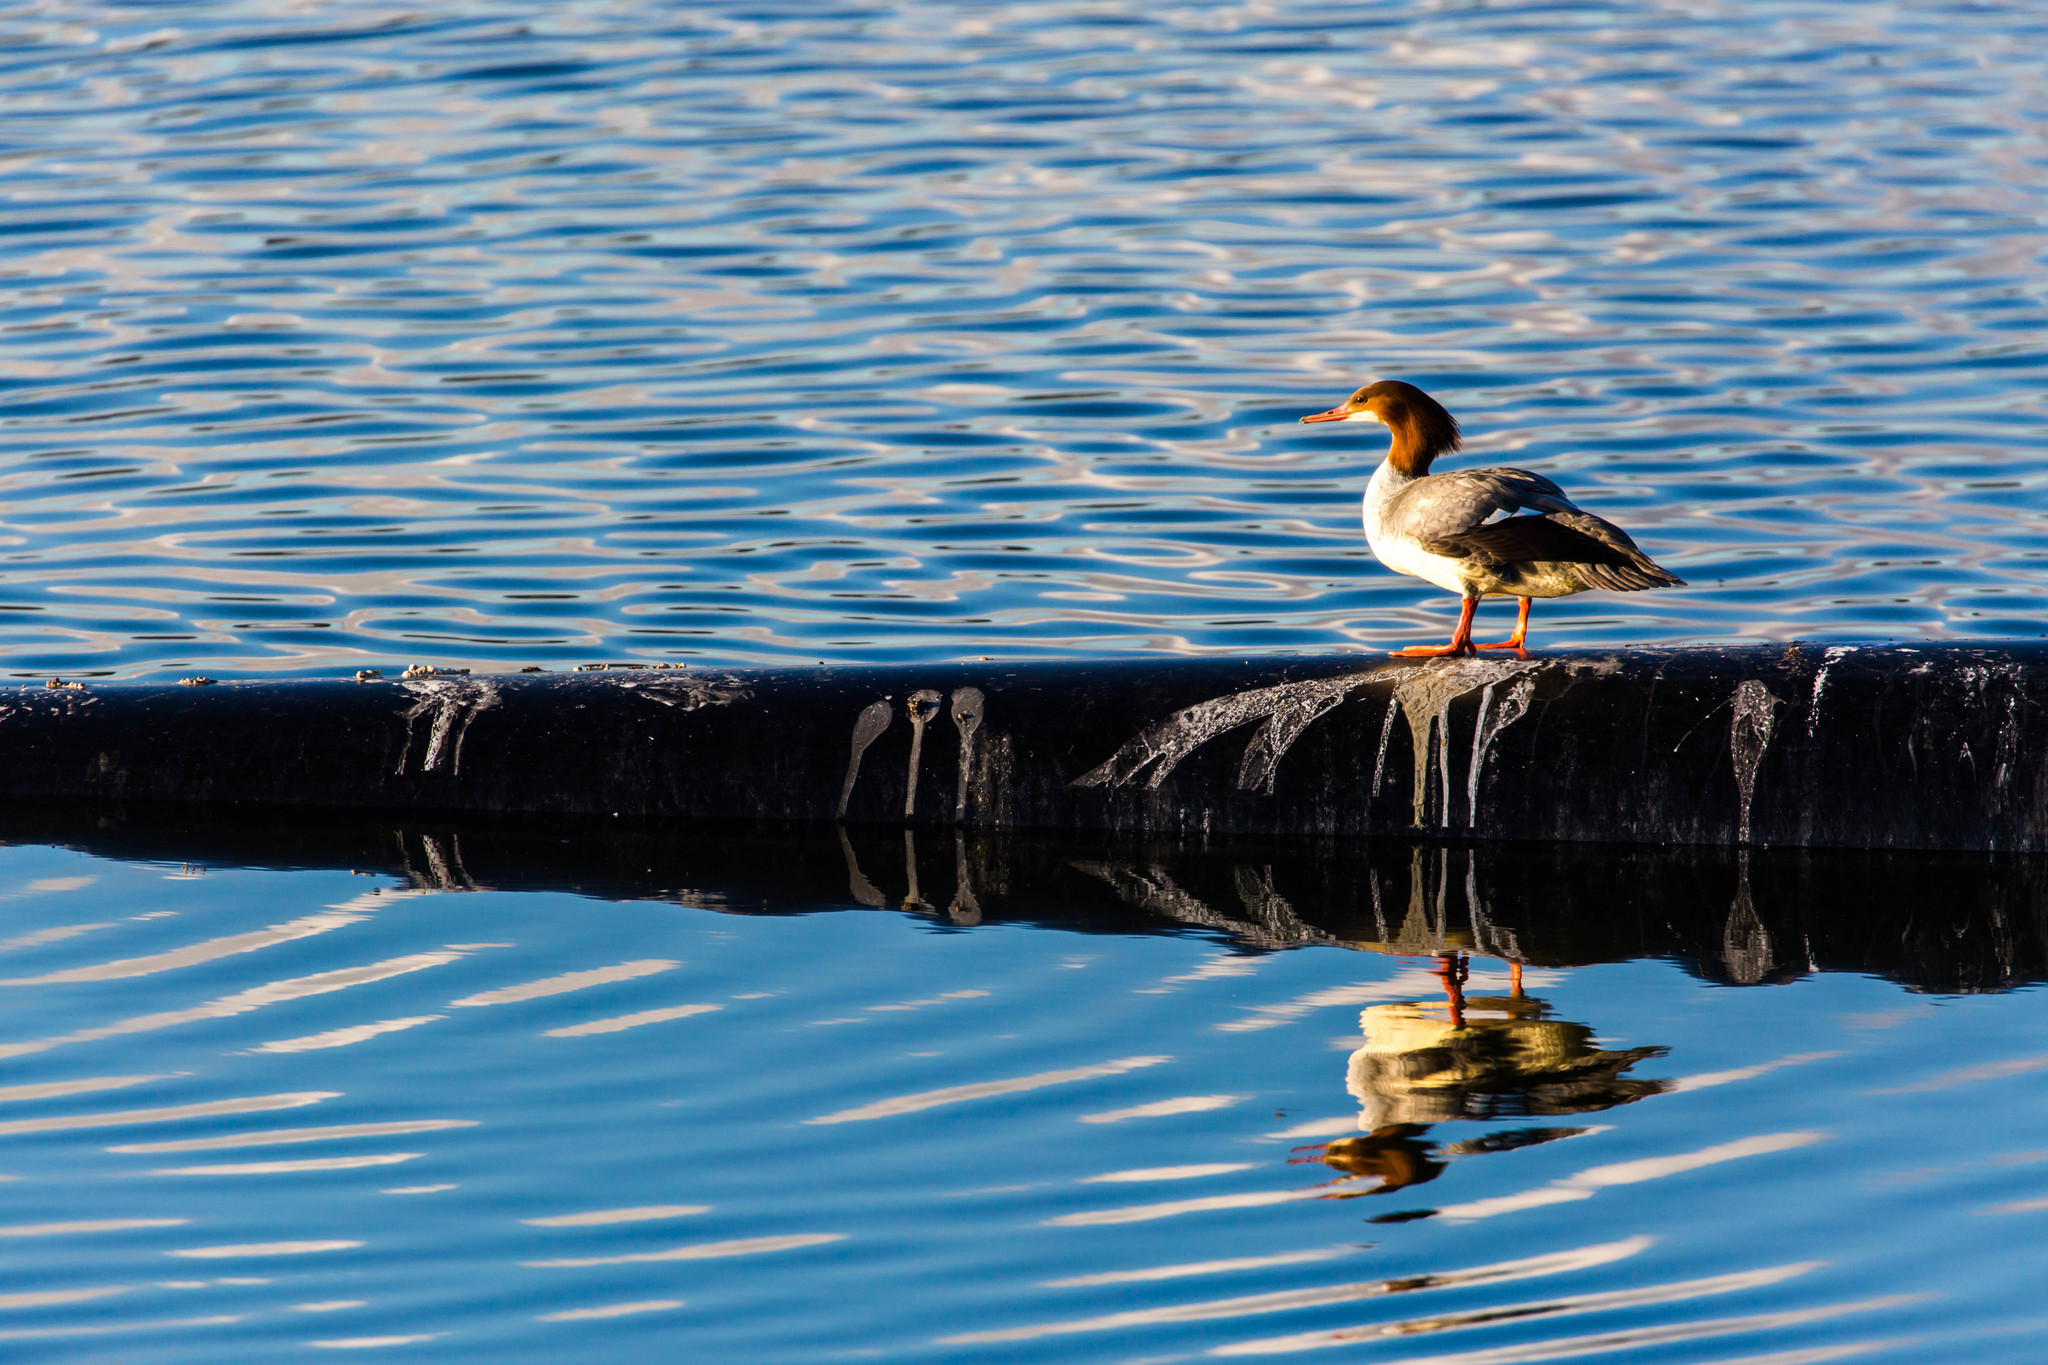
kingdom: Animalia
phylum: Chordata
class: Aves
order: Anseriformes
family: Anatidae
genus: Mergus
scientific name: Mergus merganser
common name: Common merganser
